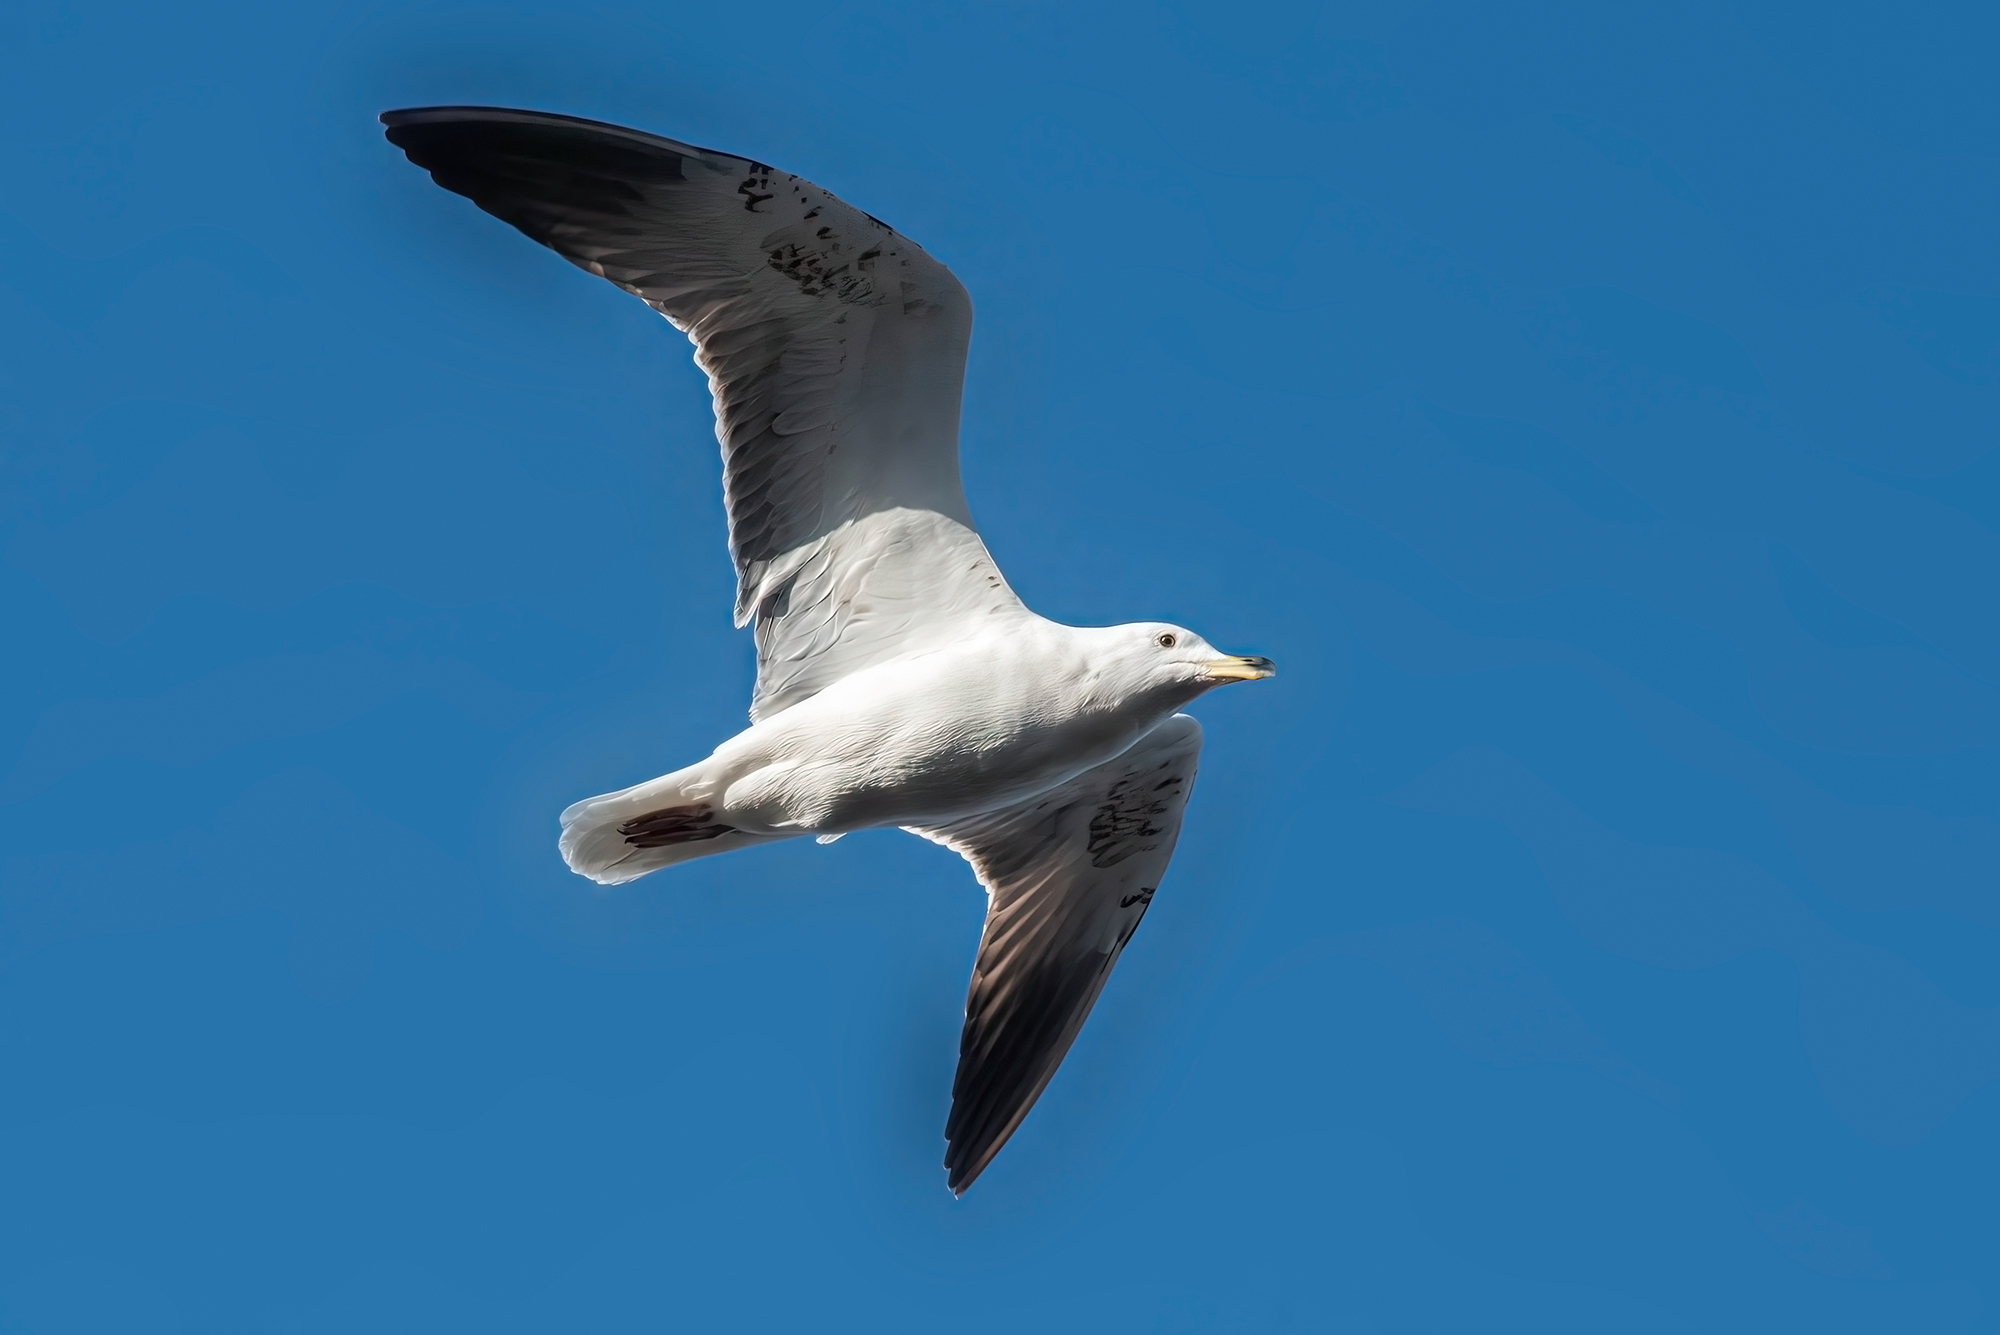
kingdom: Animalia
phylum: Chordata
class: Aves
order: Charadriiformes
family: Laridae
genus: Larus
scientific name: Larus fuscus
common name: Lesser black-backed gull
